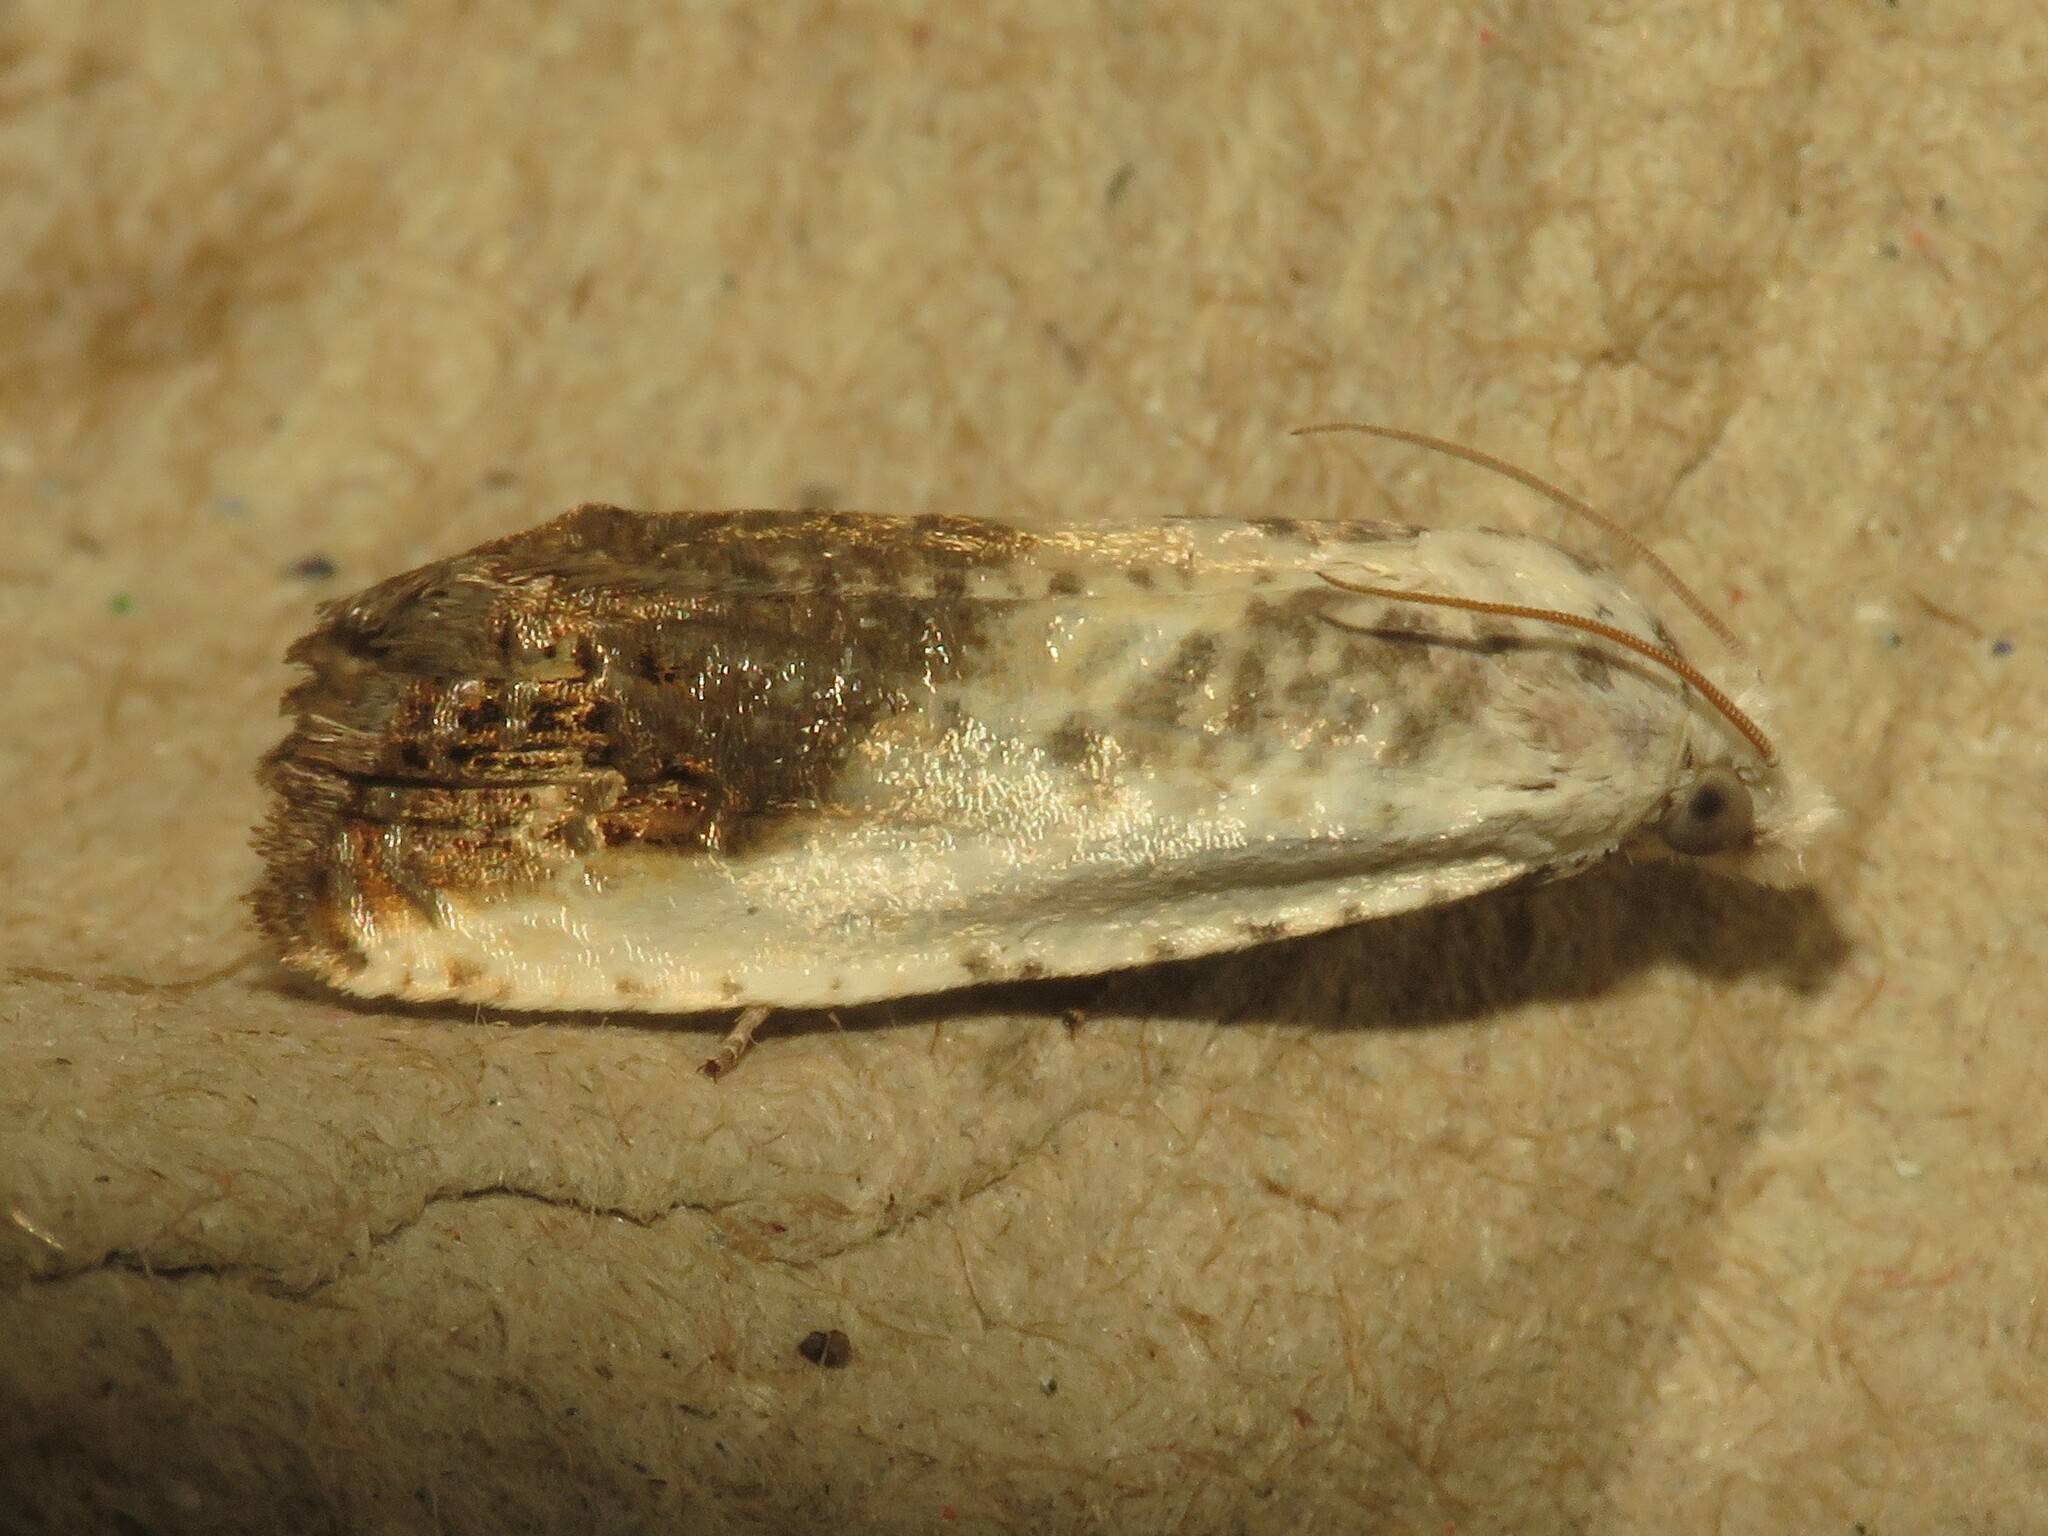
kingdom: Animalia
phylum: Arthropoda
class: Insecta
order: Lepidoptera
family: Tortricidae
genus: Eucosma
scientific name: Eucosma giganteana
